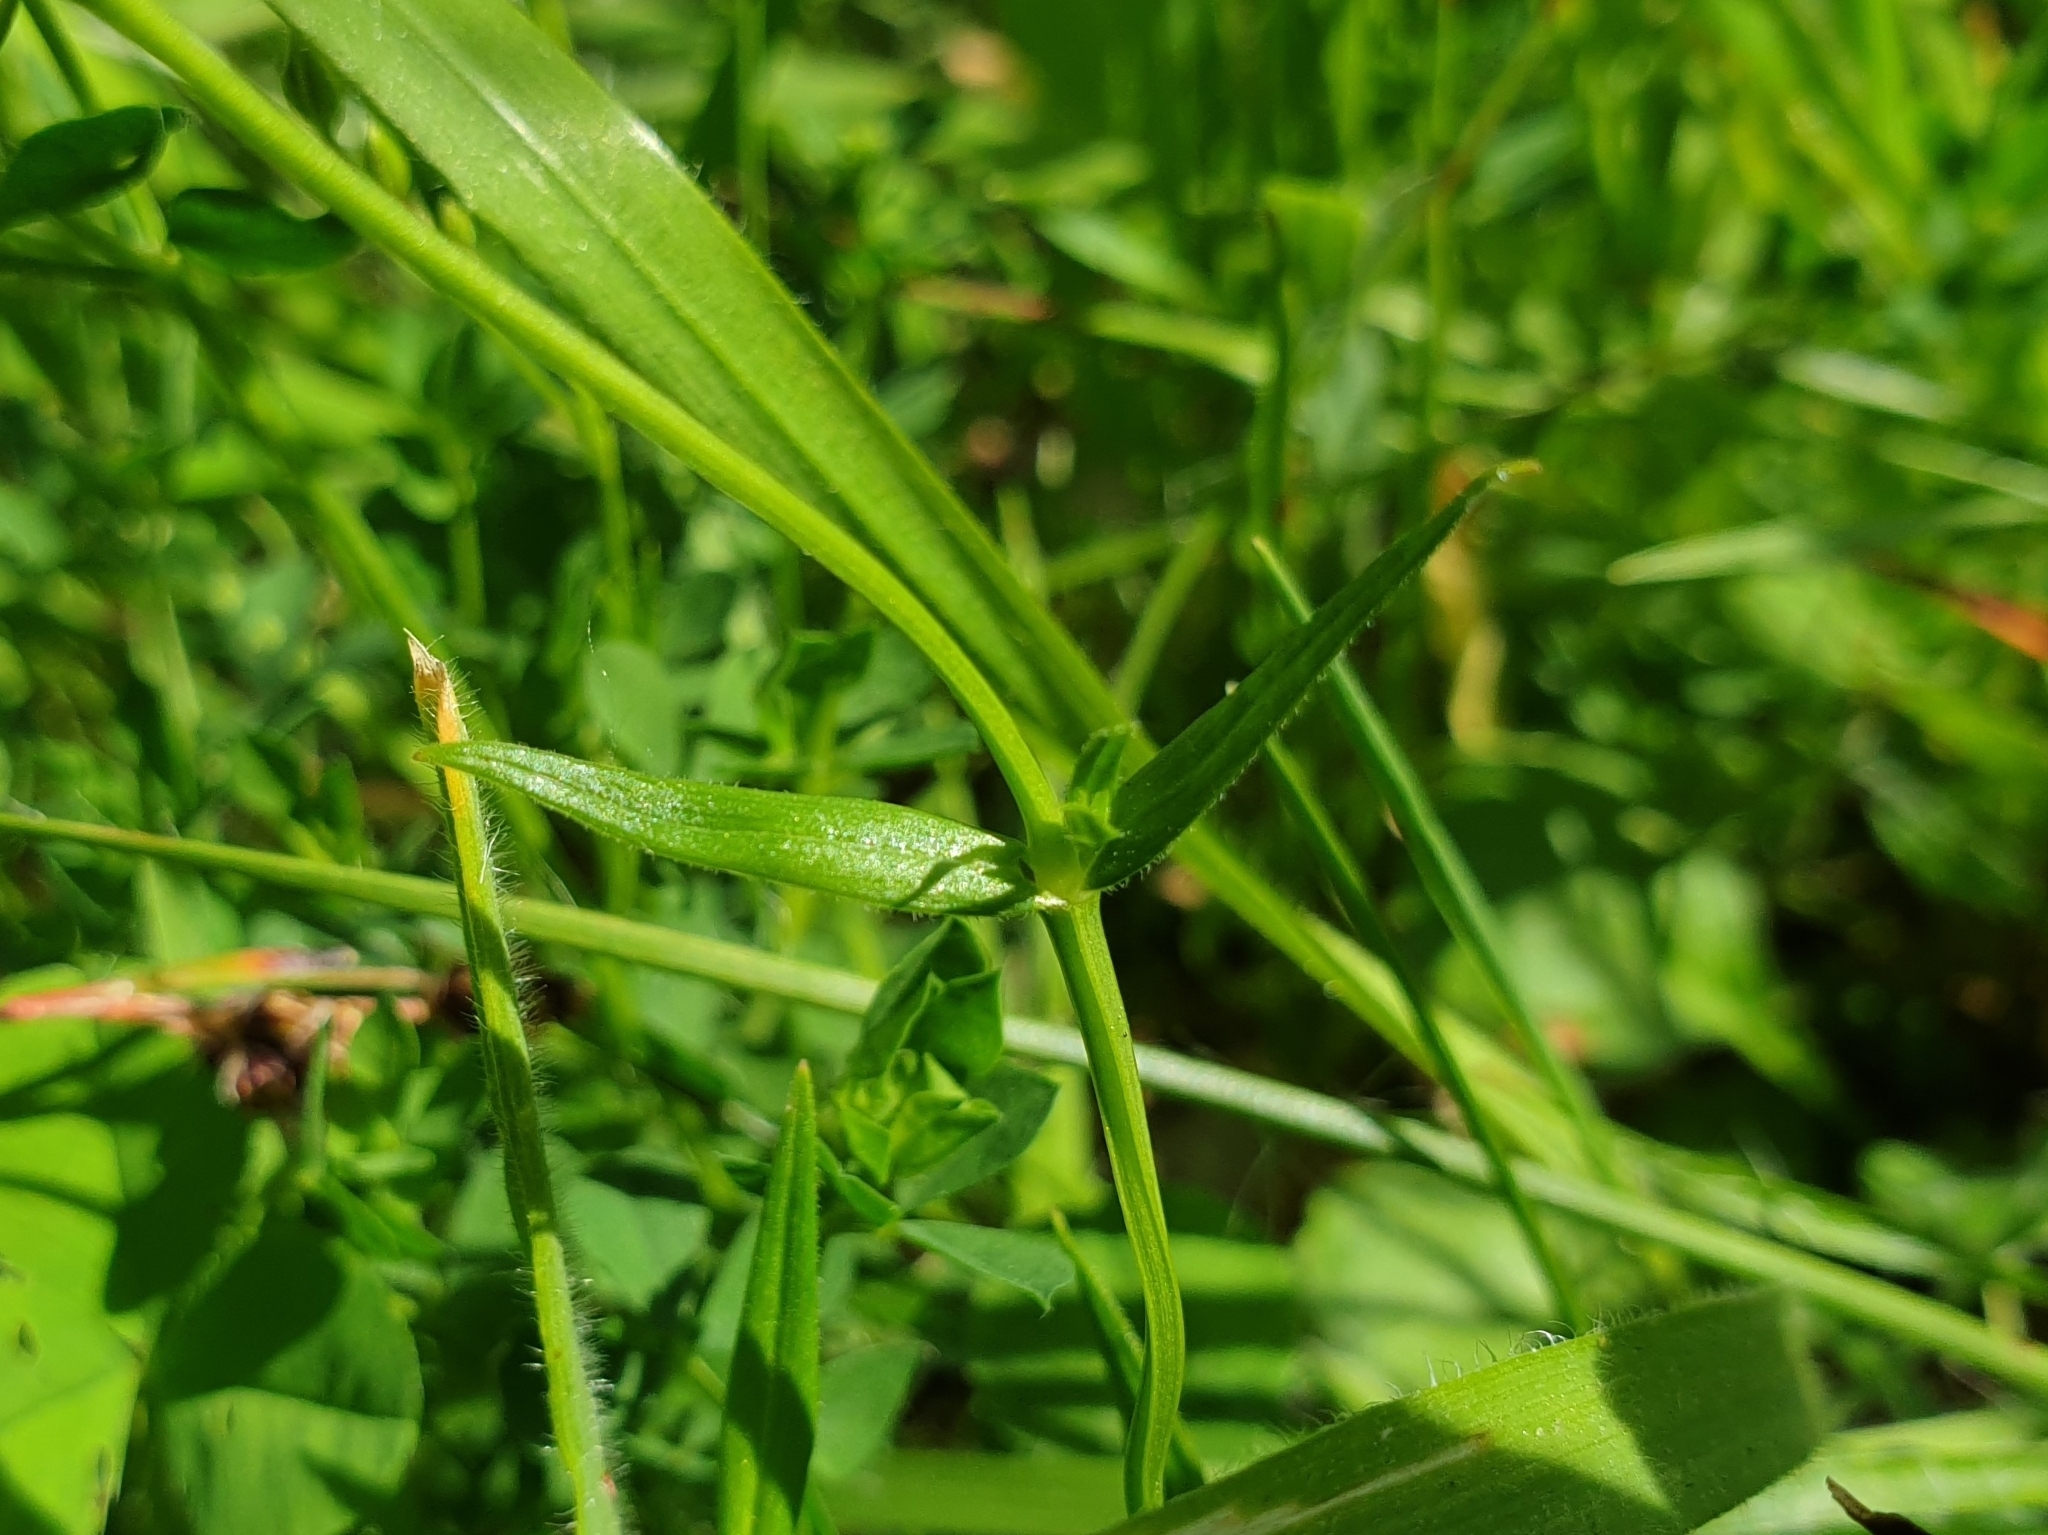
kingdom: Plantae
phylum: Tracheophyta
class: Magnoliopsida
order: Caryophyllales
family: Caryophyllaceae
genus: Stellaria
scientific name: Stellaria graminea
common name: Grass-like starwort
